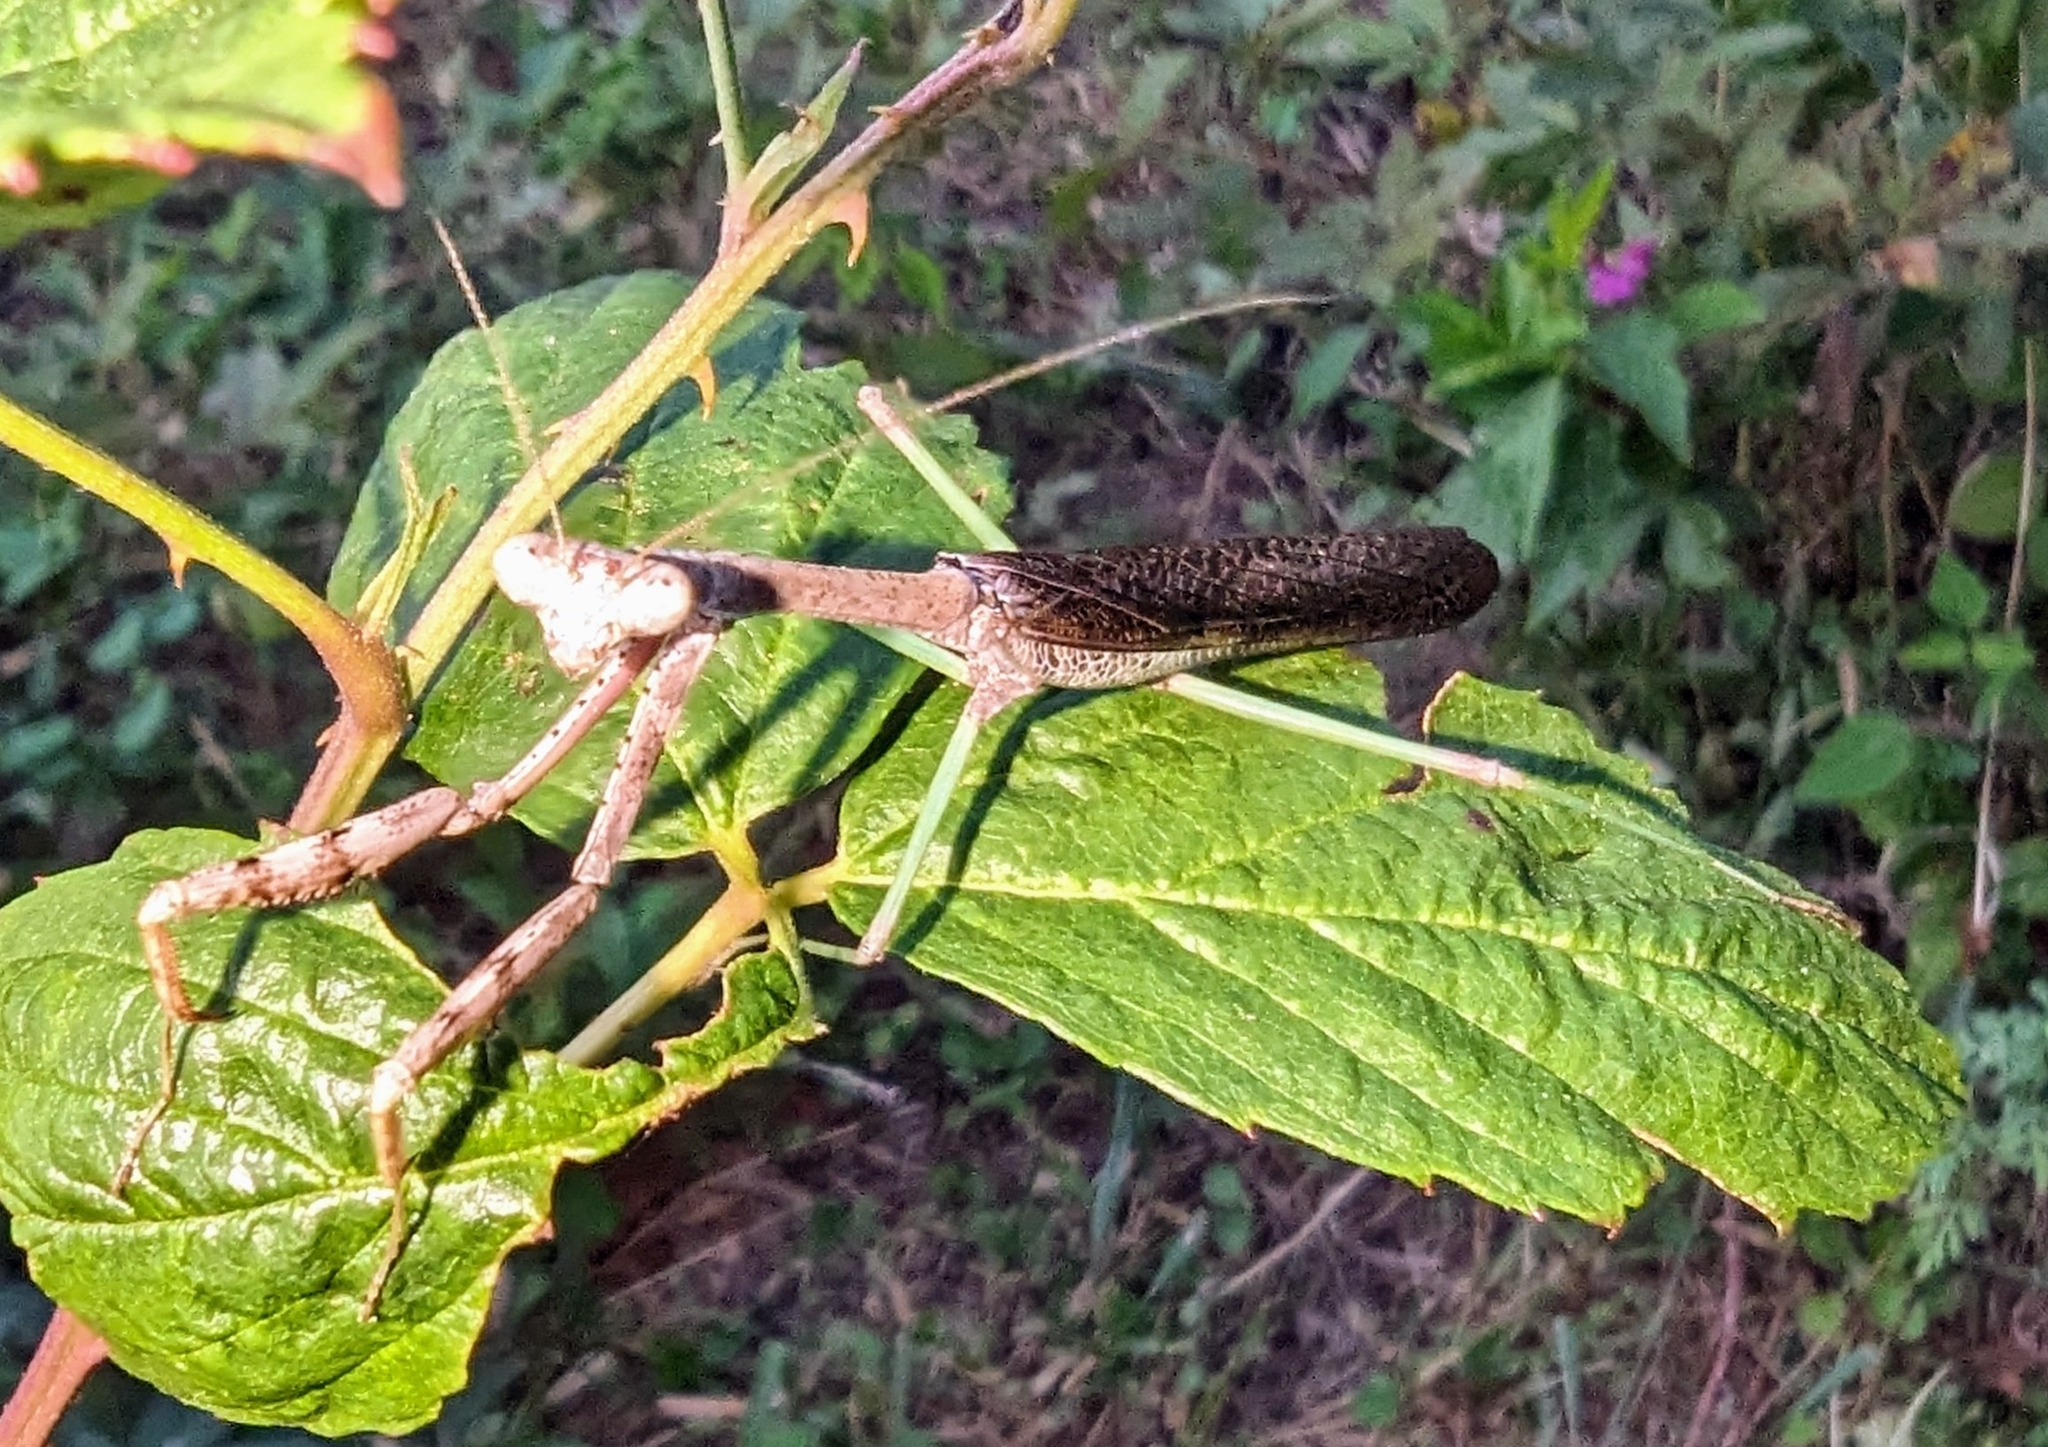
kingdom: Animalia
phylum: Arthropoda
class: Insecta
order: Mantodea
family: Mantidae
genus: Stagmomantis
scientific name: Stagmomantis carolina
